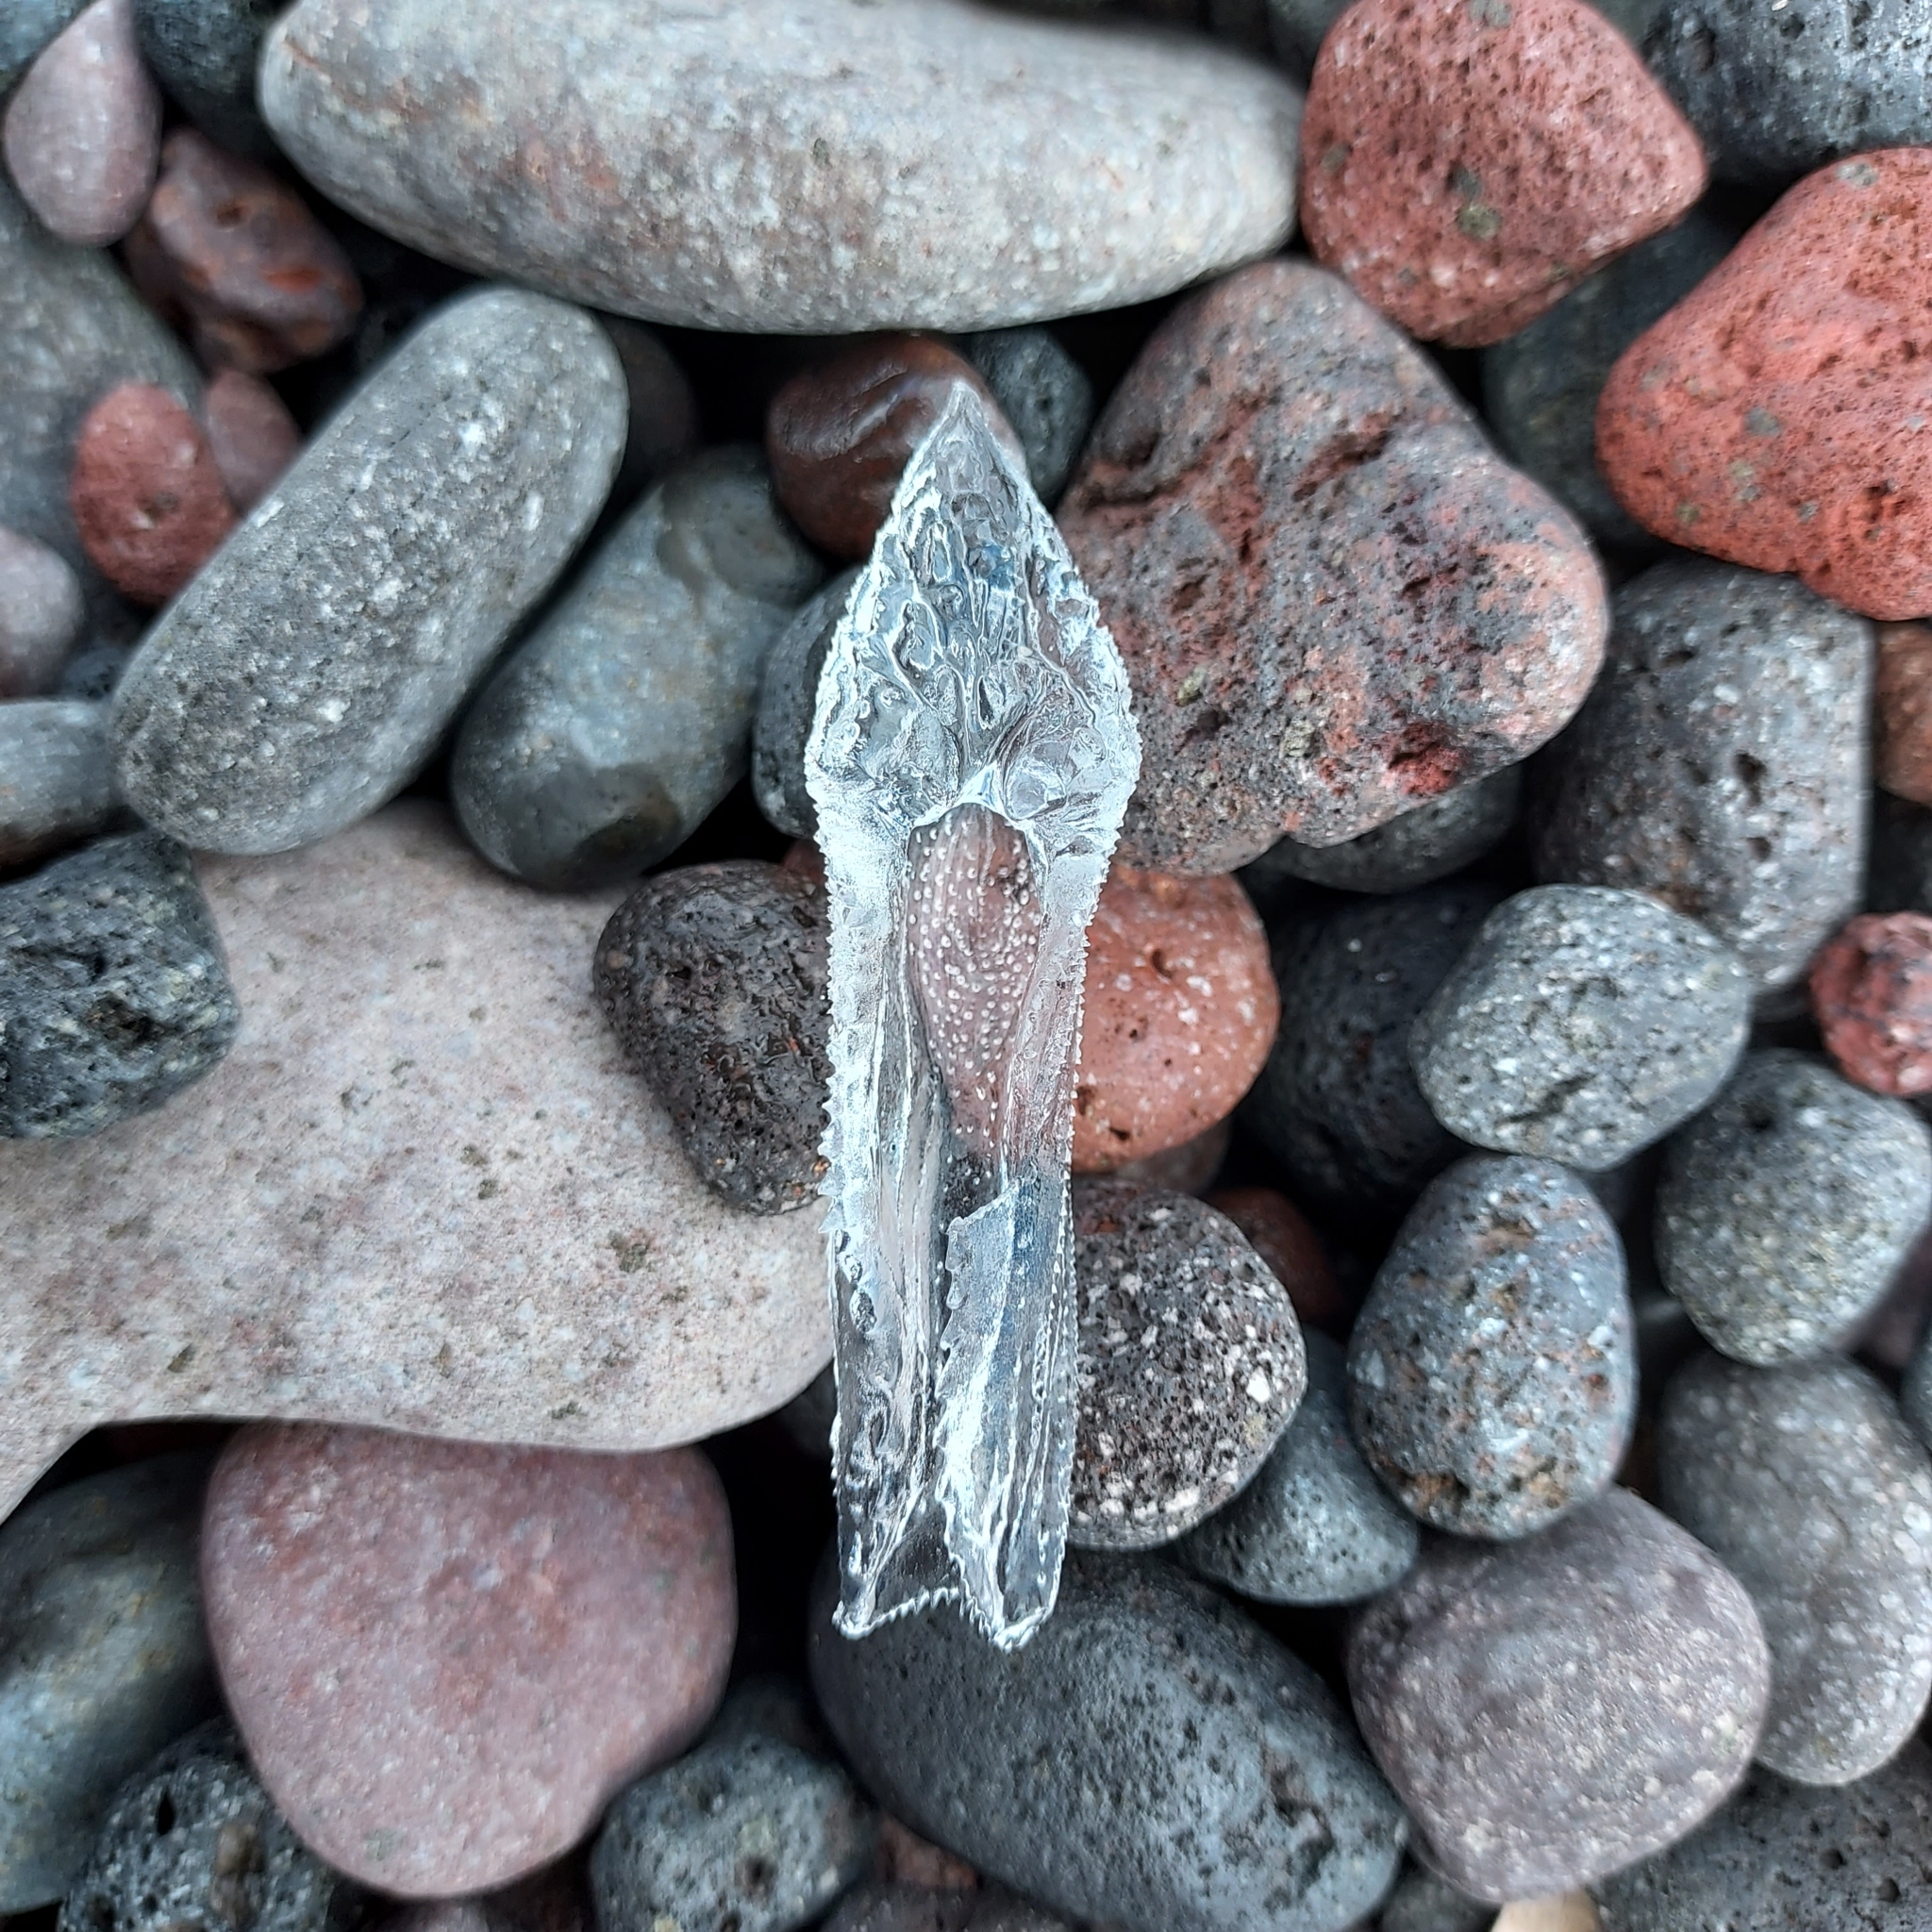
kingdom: Animalia
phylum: Mollusca
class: Gastropoda
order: Pteropoda
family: Cymbuliidae
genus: Cymbulia
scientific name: Cymbulia peronii
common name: Sword of venus
